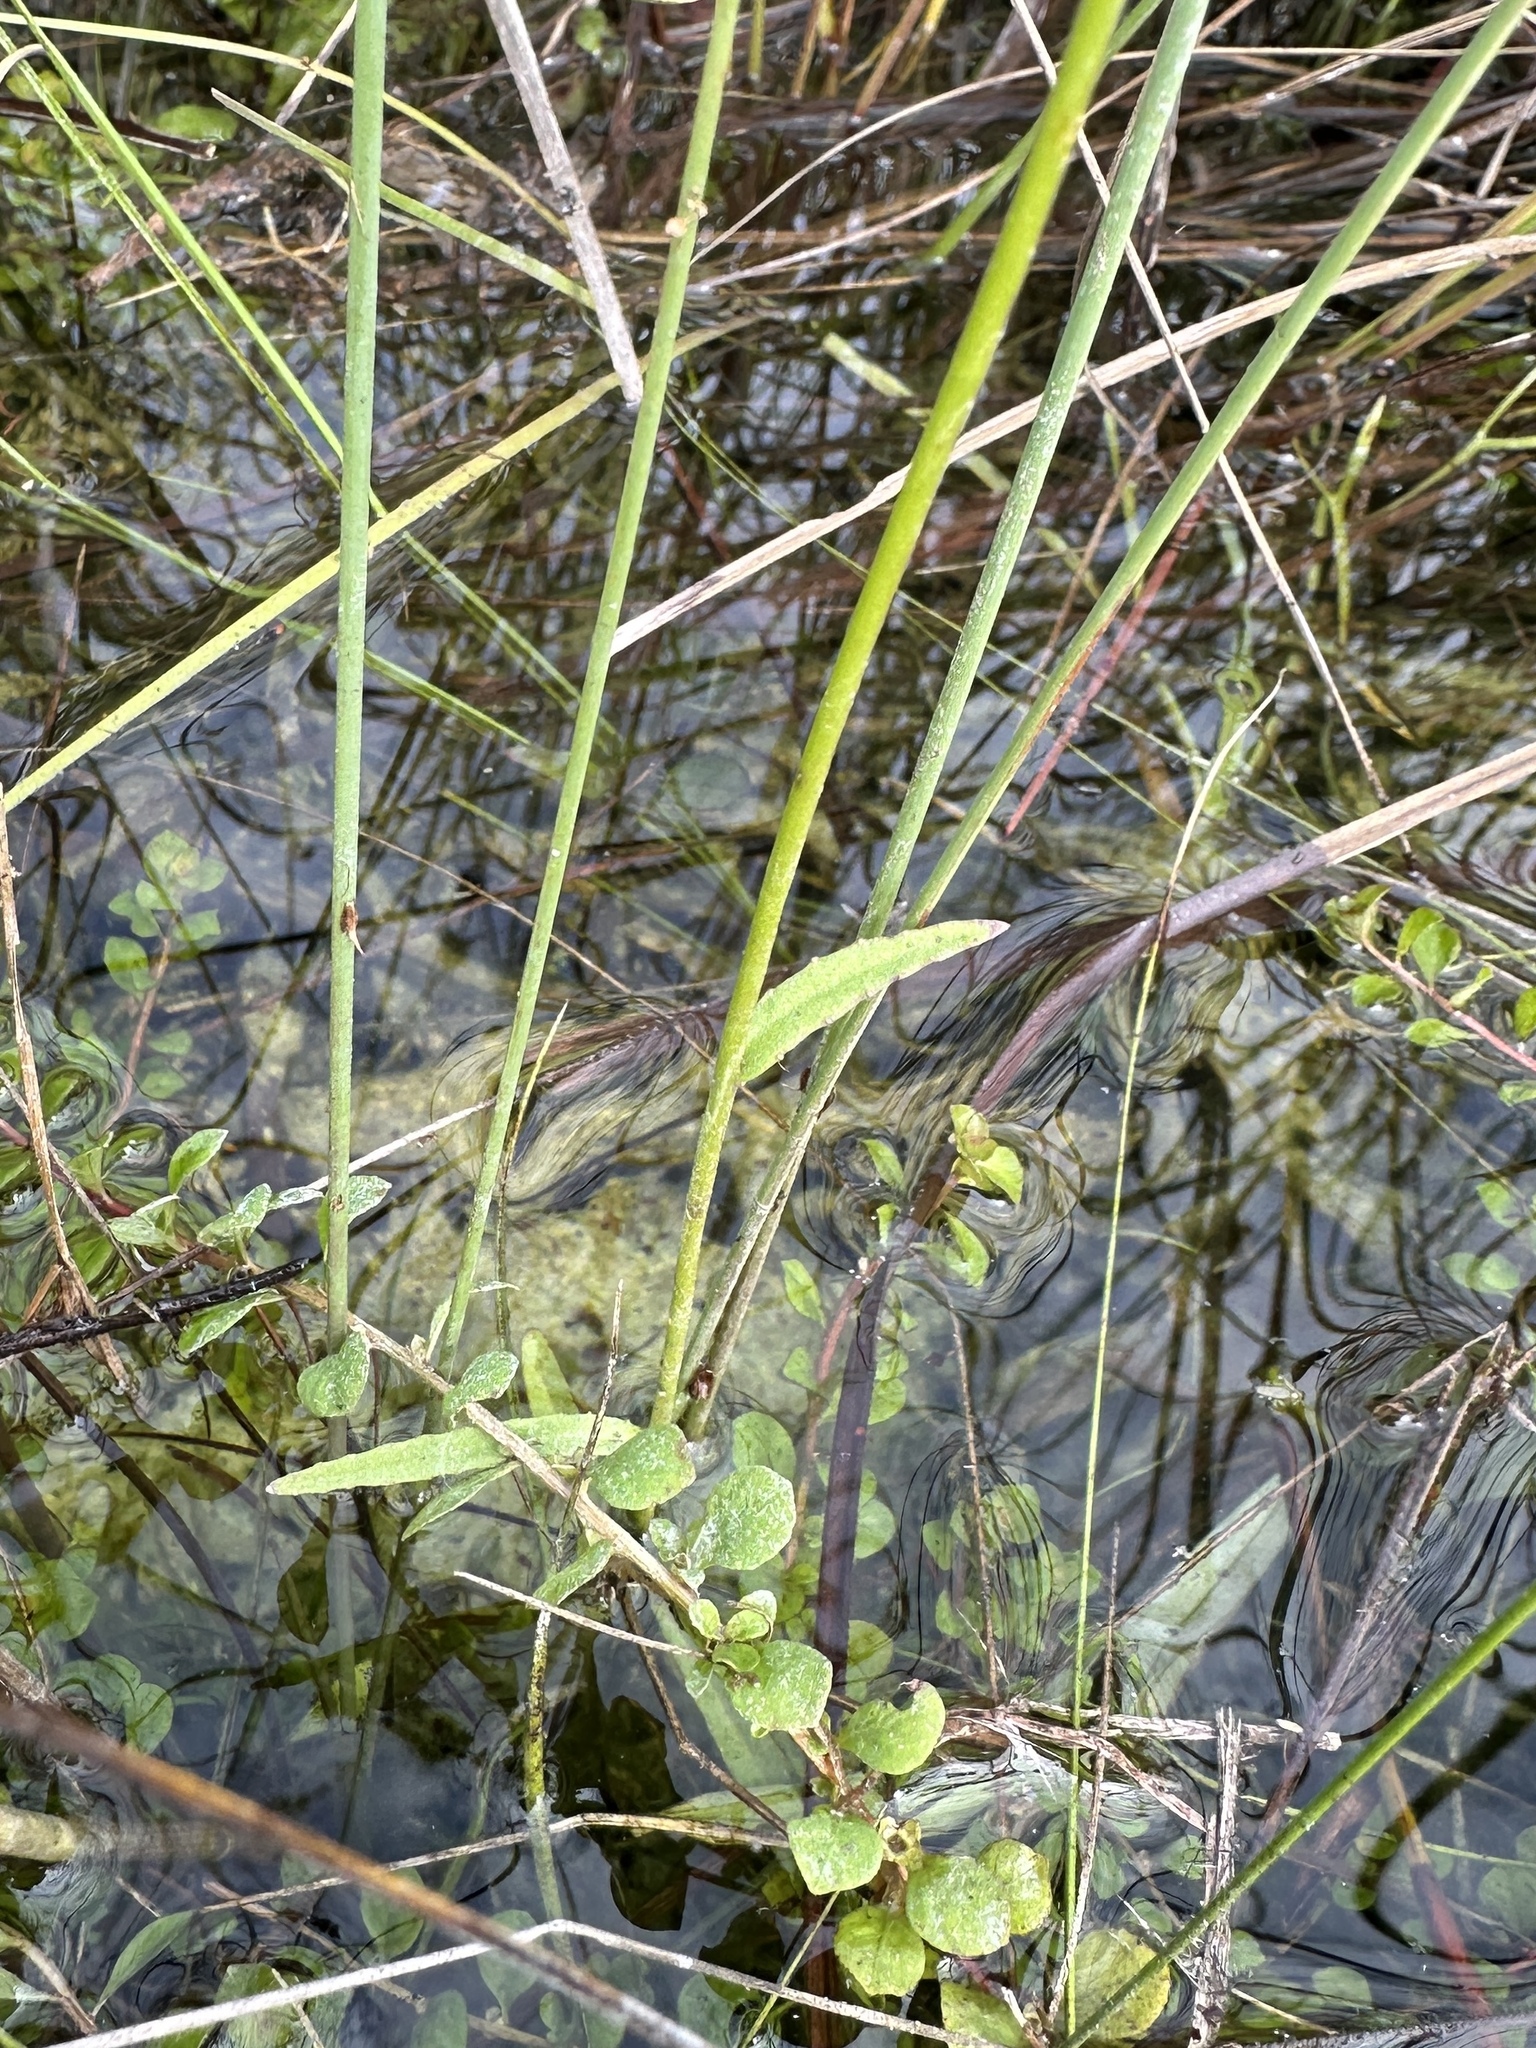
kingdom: Plantae
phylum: Tracheophyta
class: Magnoliopsida
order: Asterales
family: Campanulaceae
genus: Lobelia
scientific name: Lobelia glandulosa
